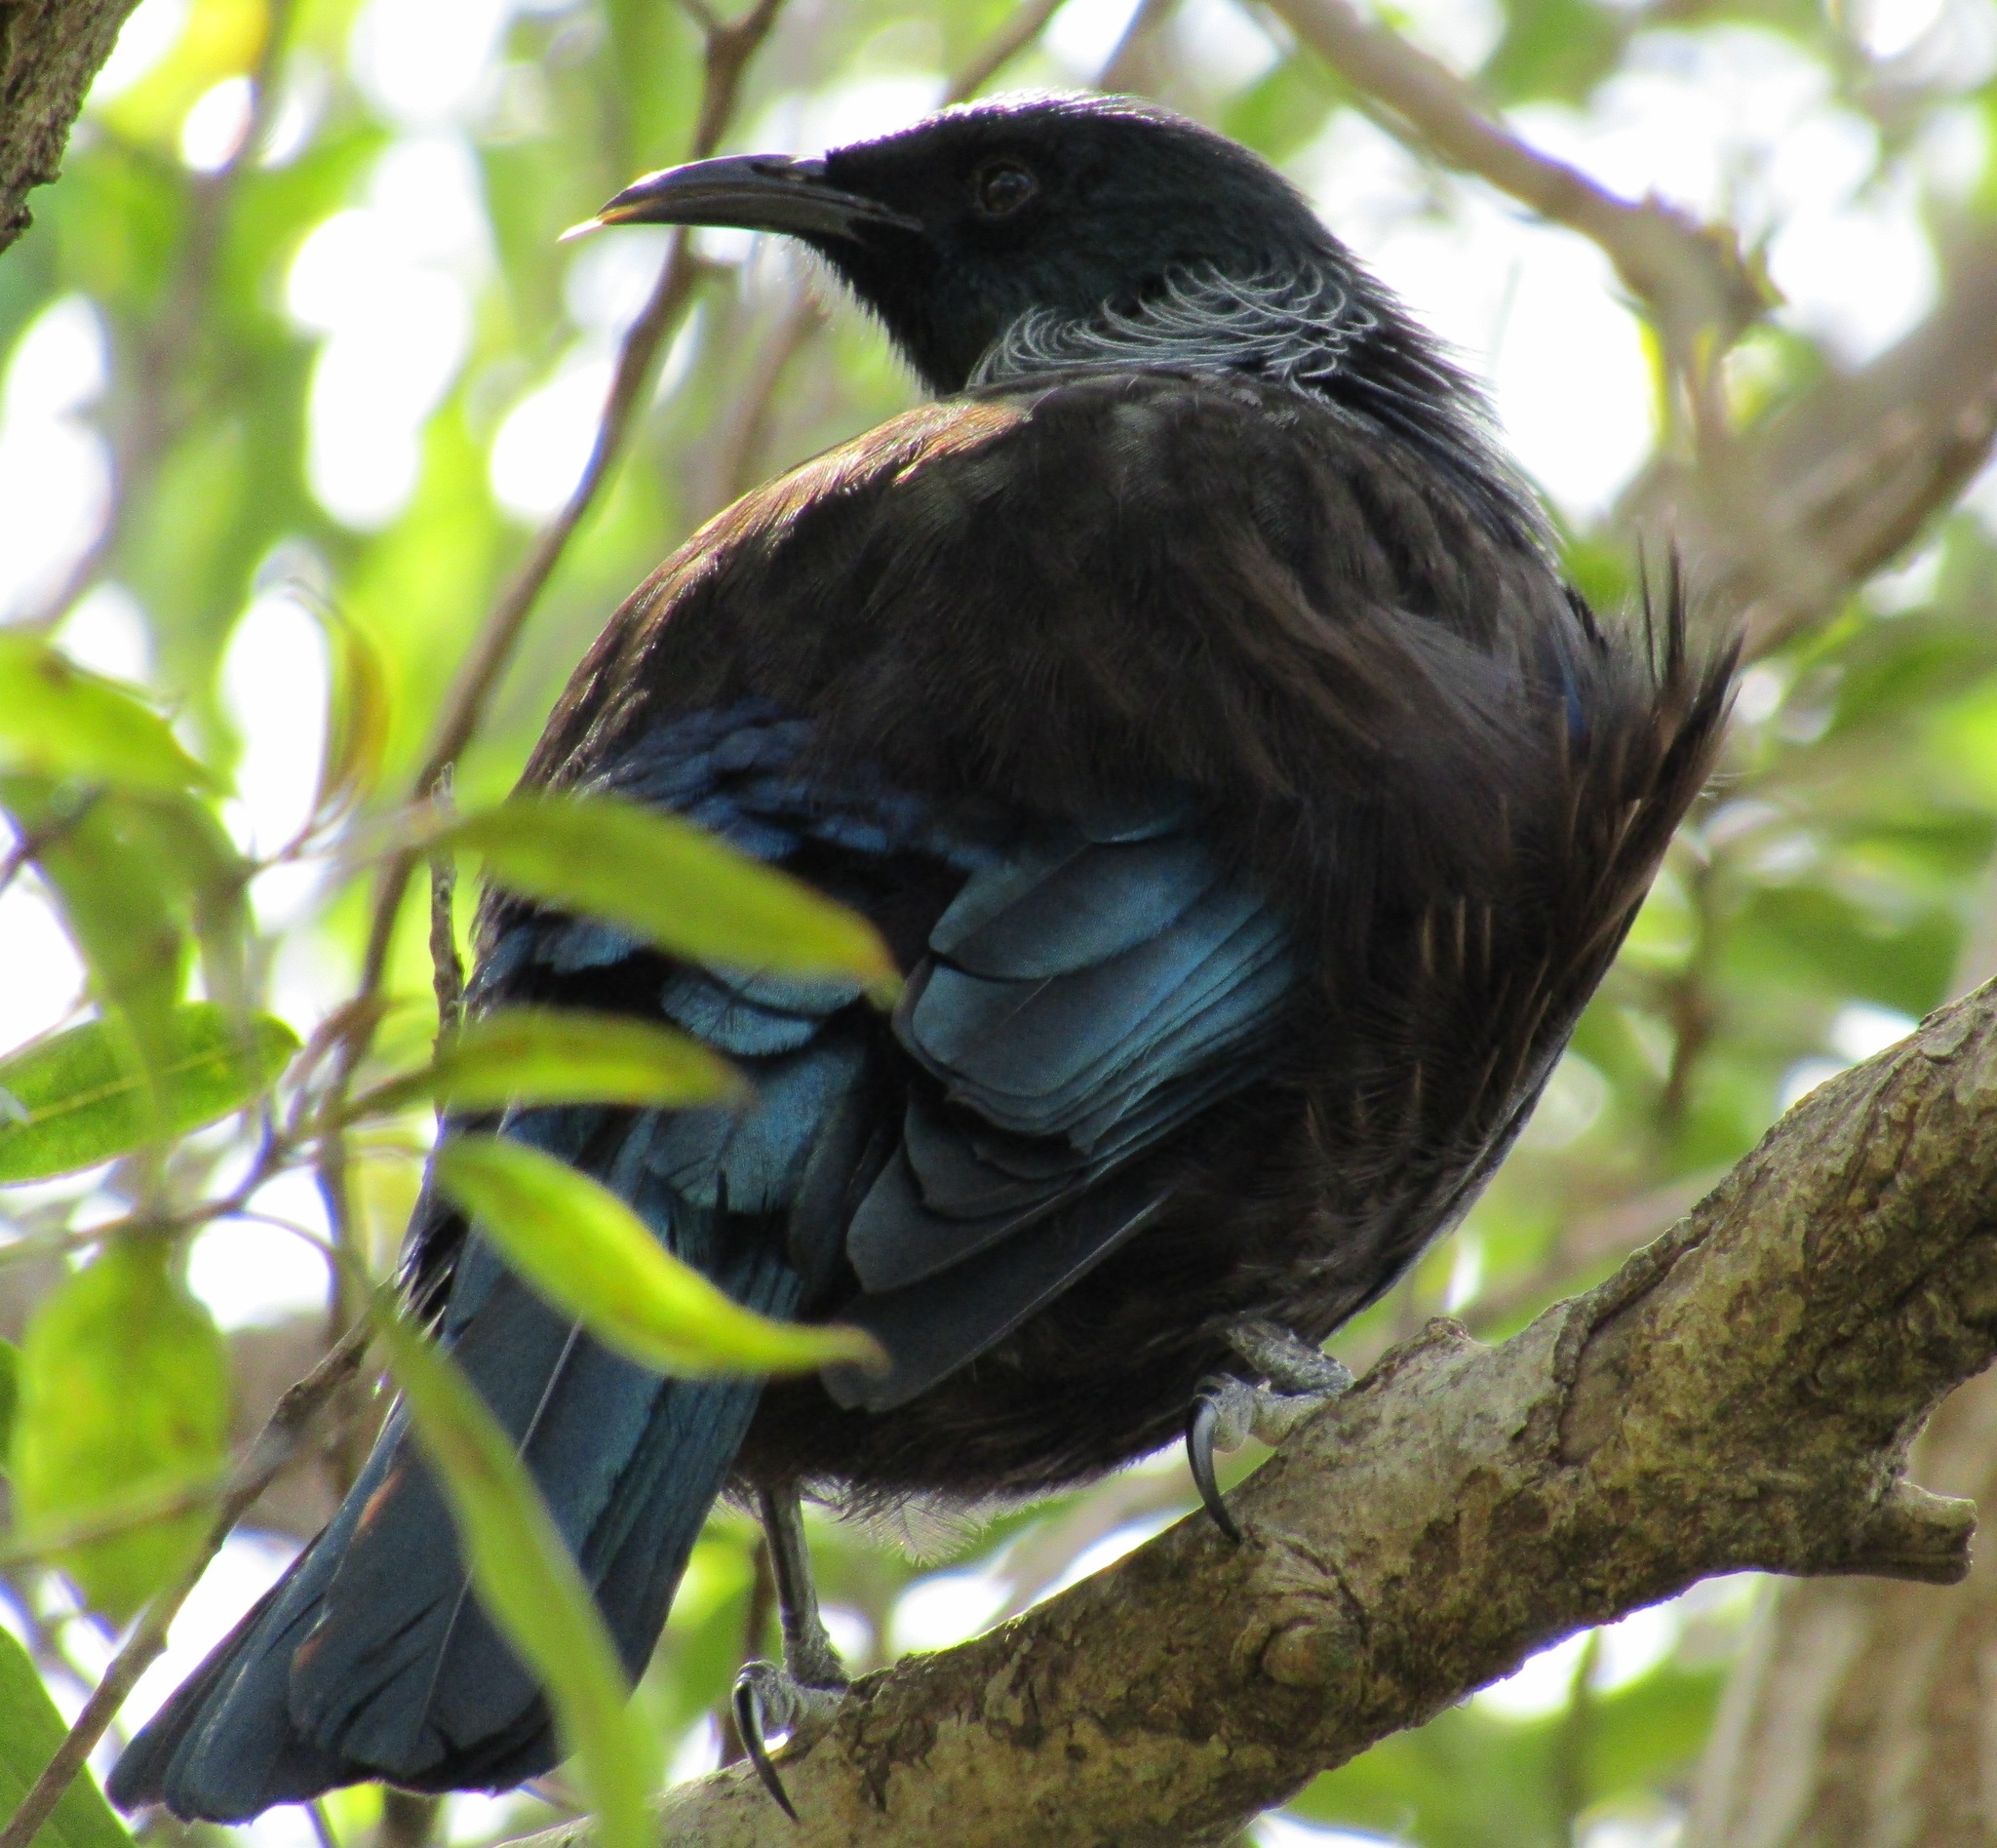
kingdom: Animalia
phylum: Chordata
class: Aves
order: Passeriformes
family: Meliphagidae
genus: Prosthemadera
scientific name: Prosthemadera novaeseelandiae
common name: Tui
